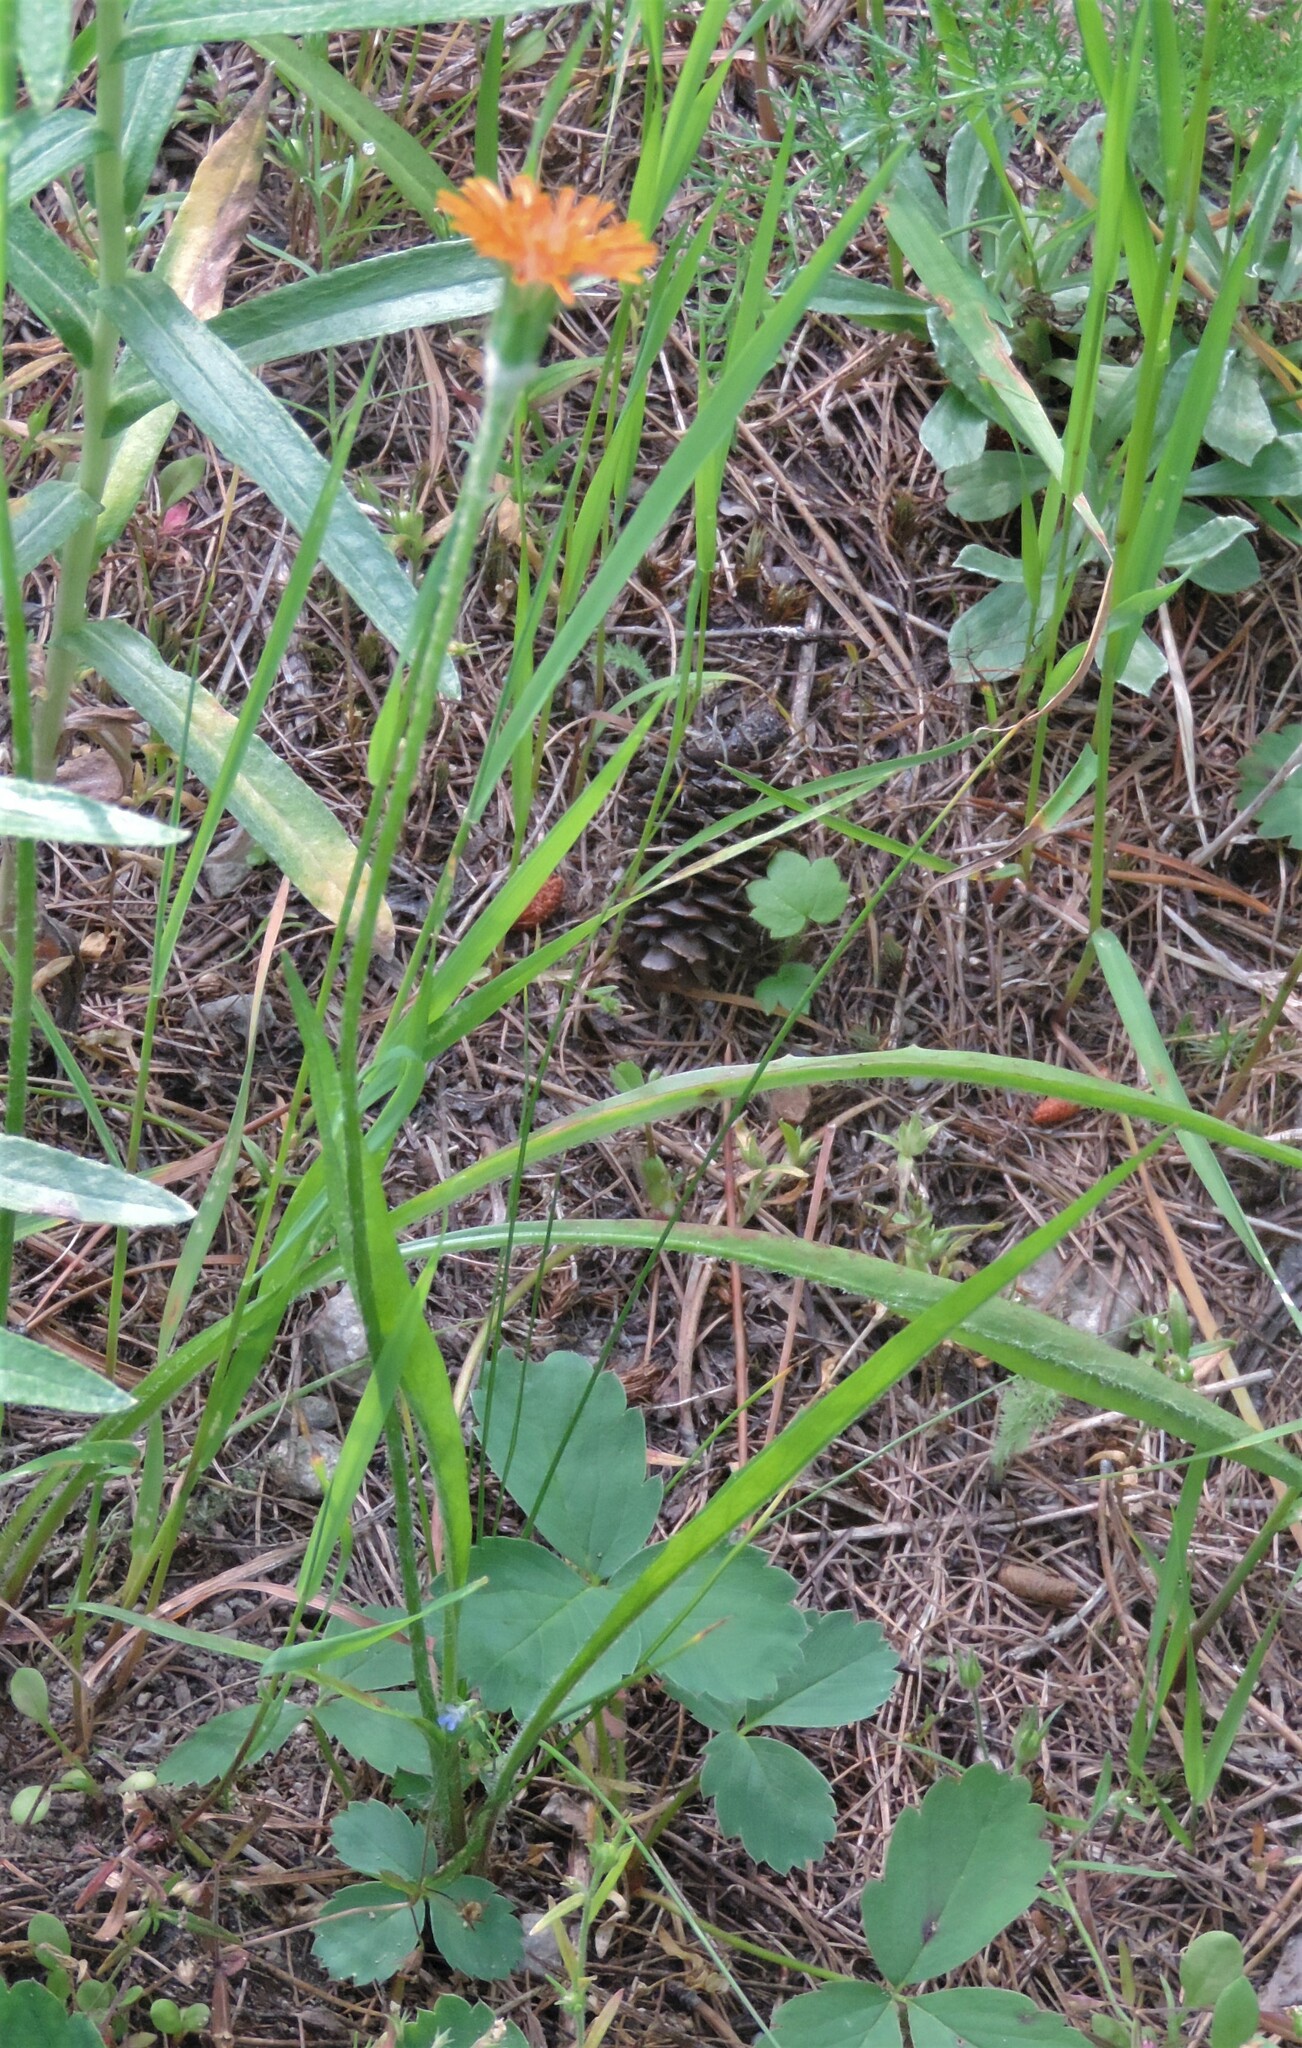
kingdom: Plantae
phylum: Tracheophyta
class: Magnoliopsida
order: Asterales
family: Asteraceae
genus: Agoseris
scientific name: Agoseris aurantiaca
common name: Mountain agoseris
